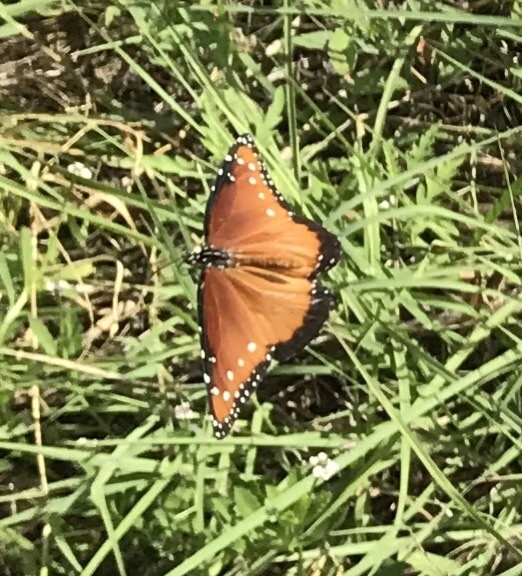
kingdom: Animalia
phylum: Arthropoda
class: Insecta
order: Lepidoptera
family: Nymphalidae
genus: Danaus
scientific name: Danaus gilippus
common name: Queen
